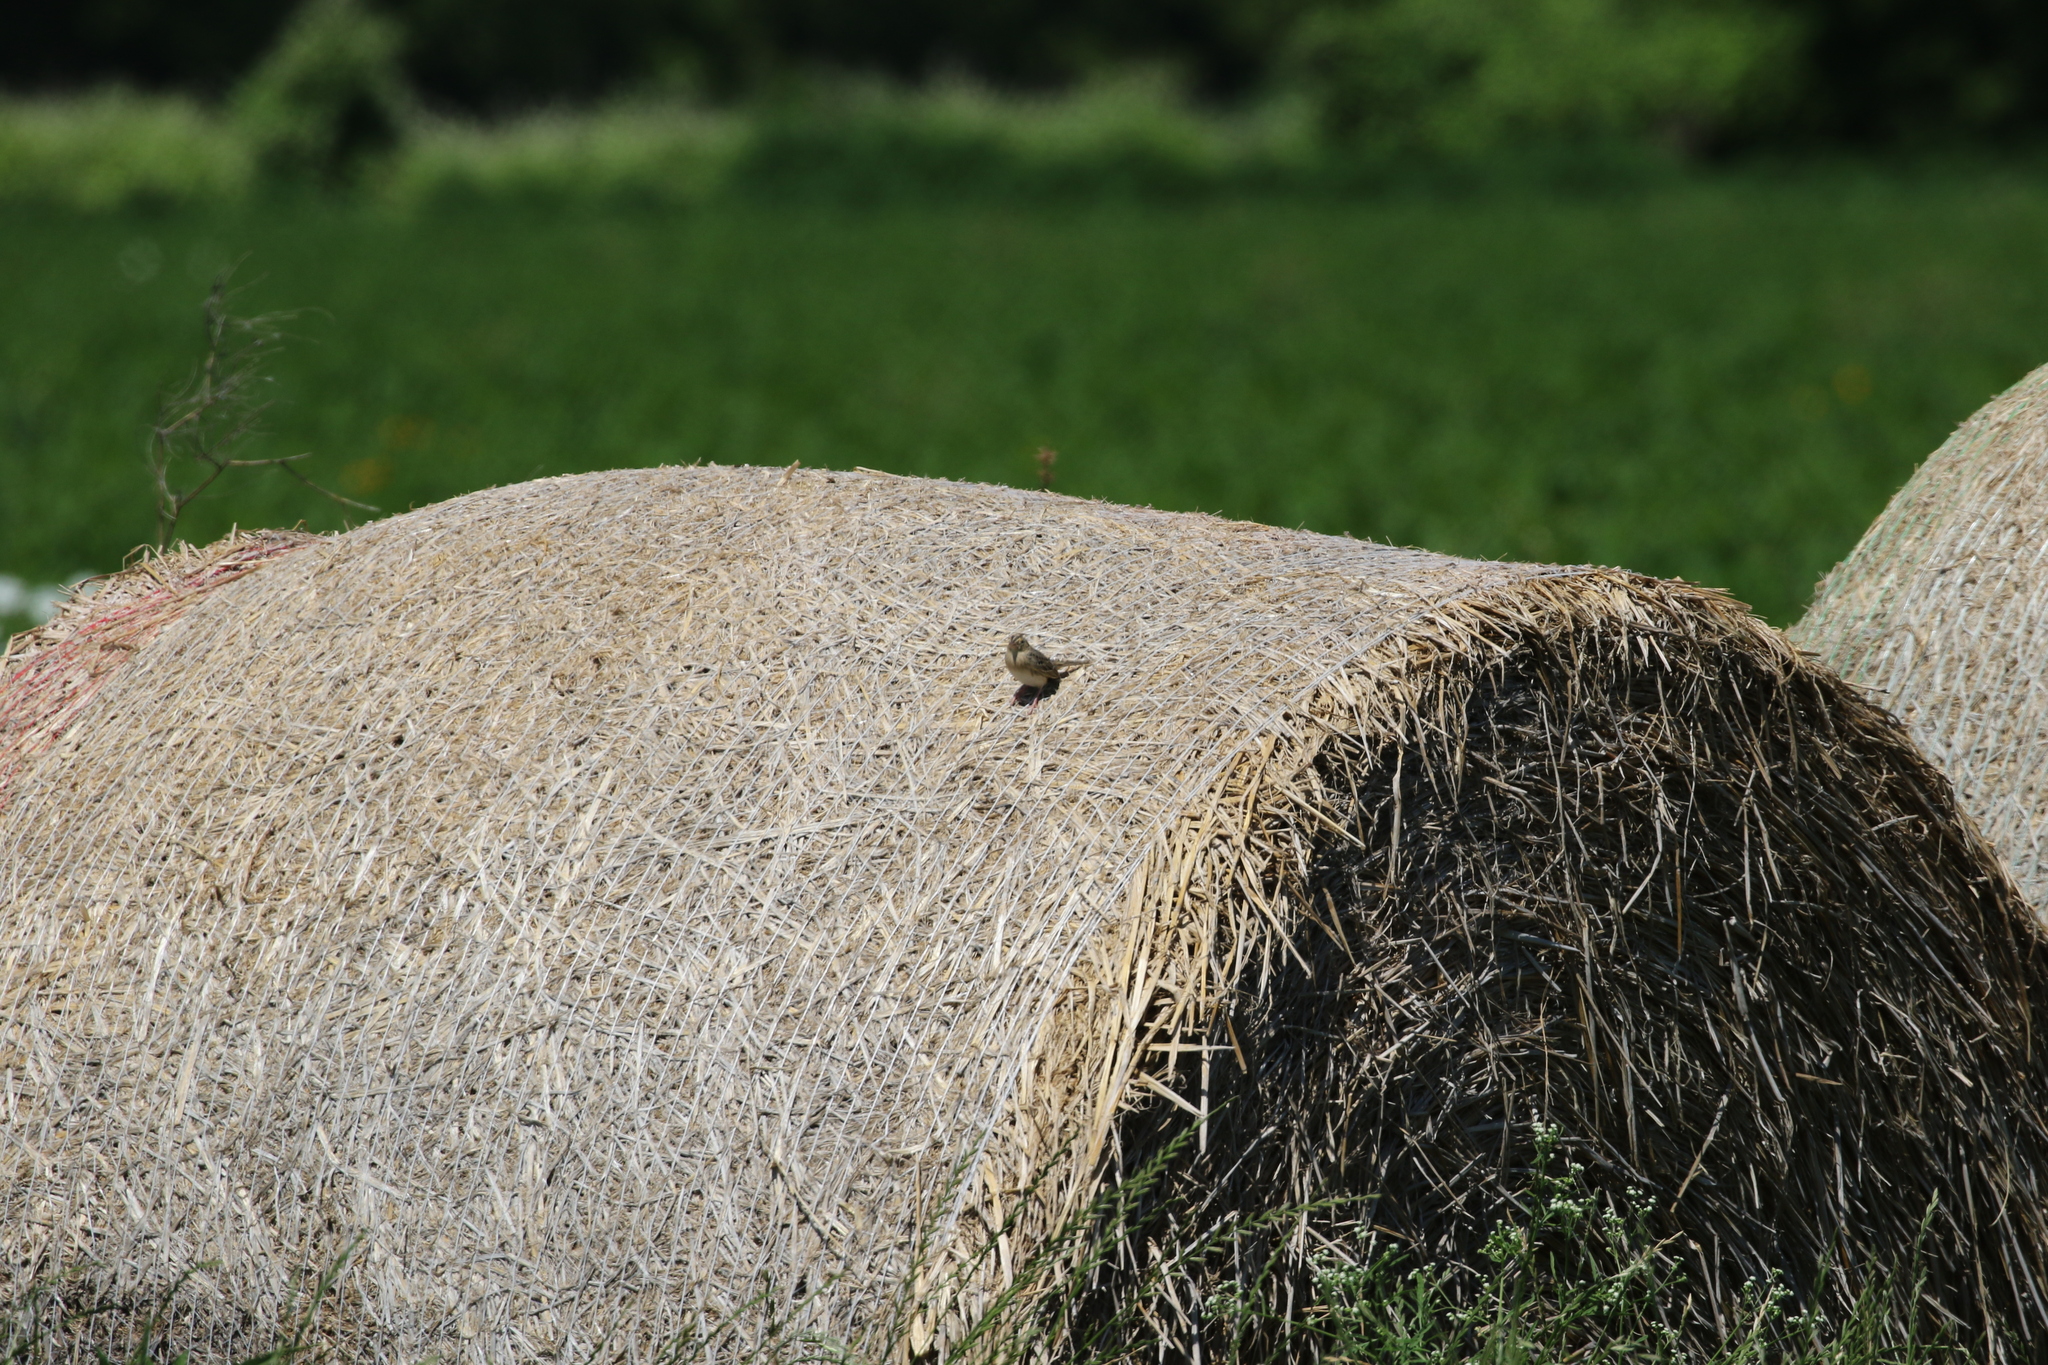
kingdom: Animalia
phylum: Chordata
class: Aves
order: Passeriformes
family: Passerellidae
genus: Ammodramus
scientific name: Ammodramus savannarum
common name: Grasshopper sparrow
